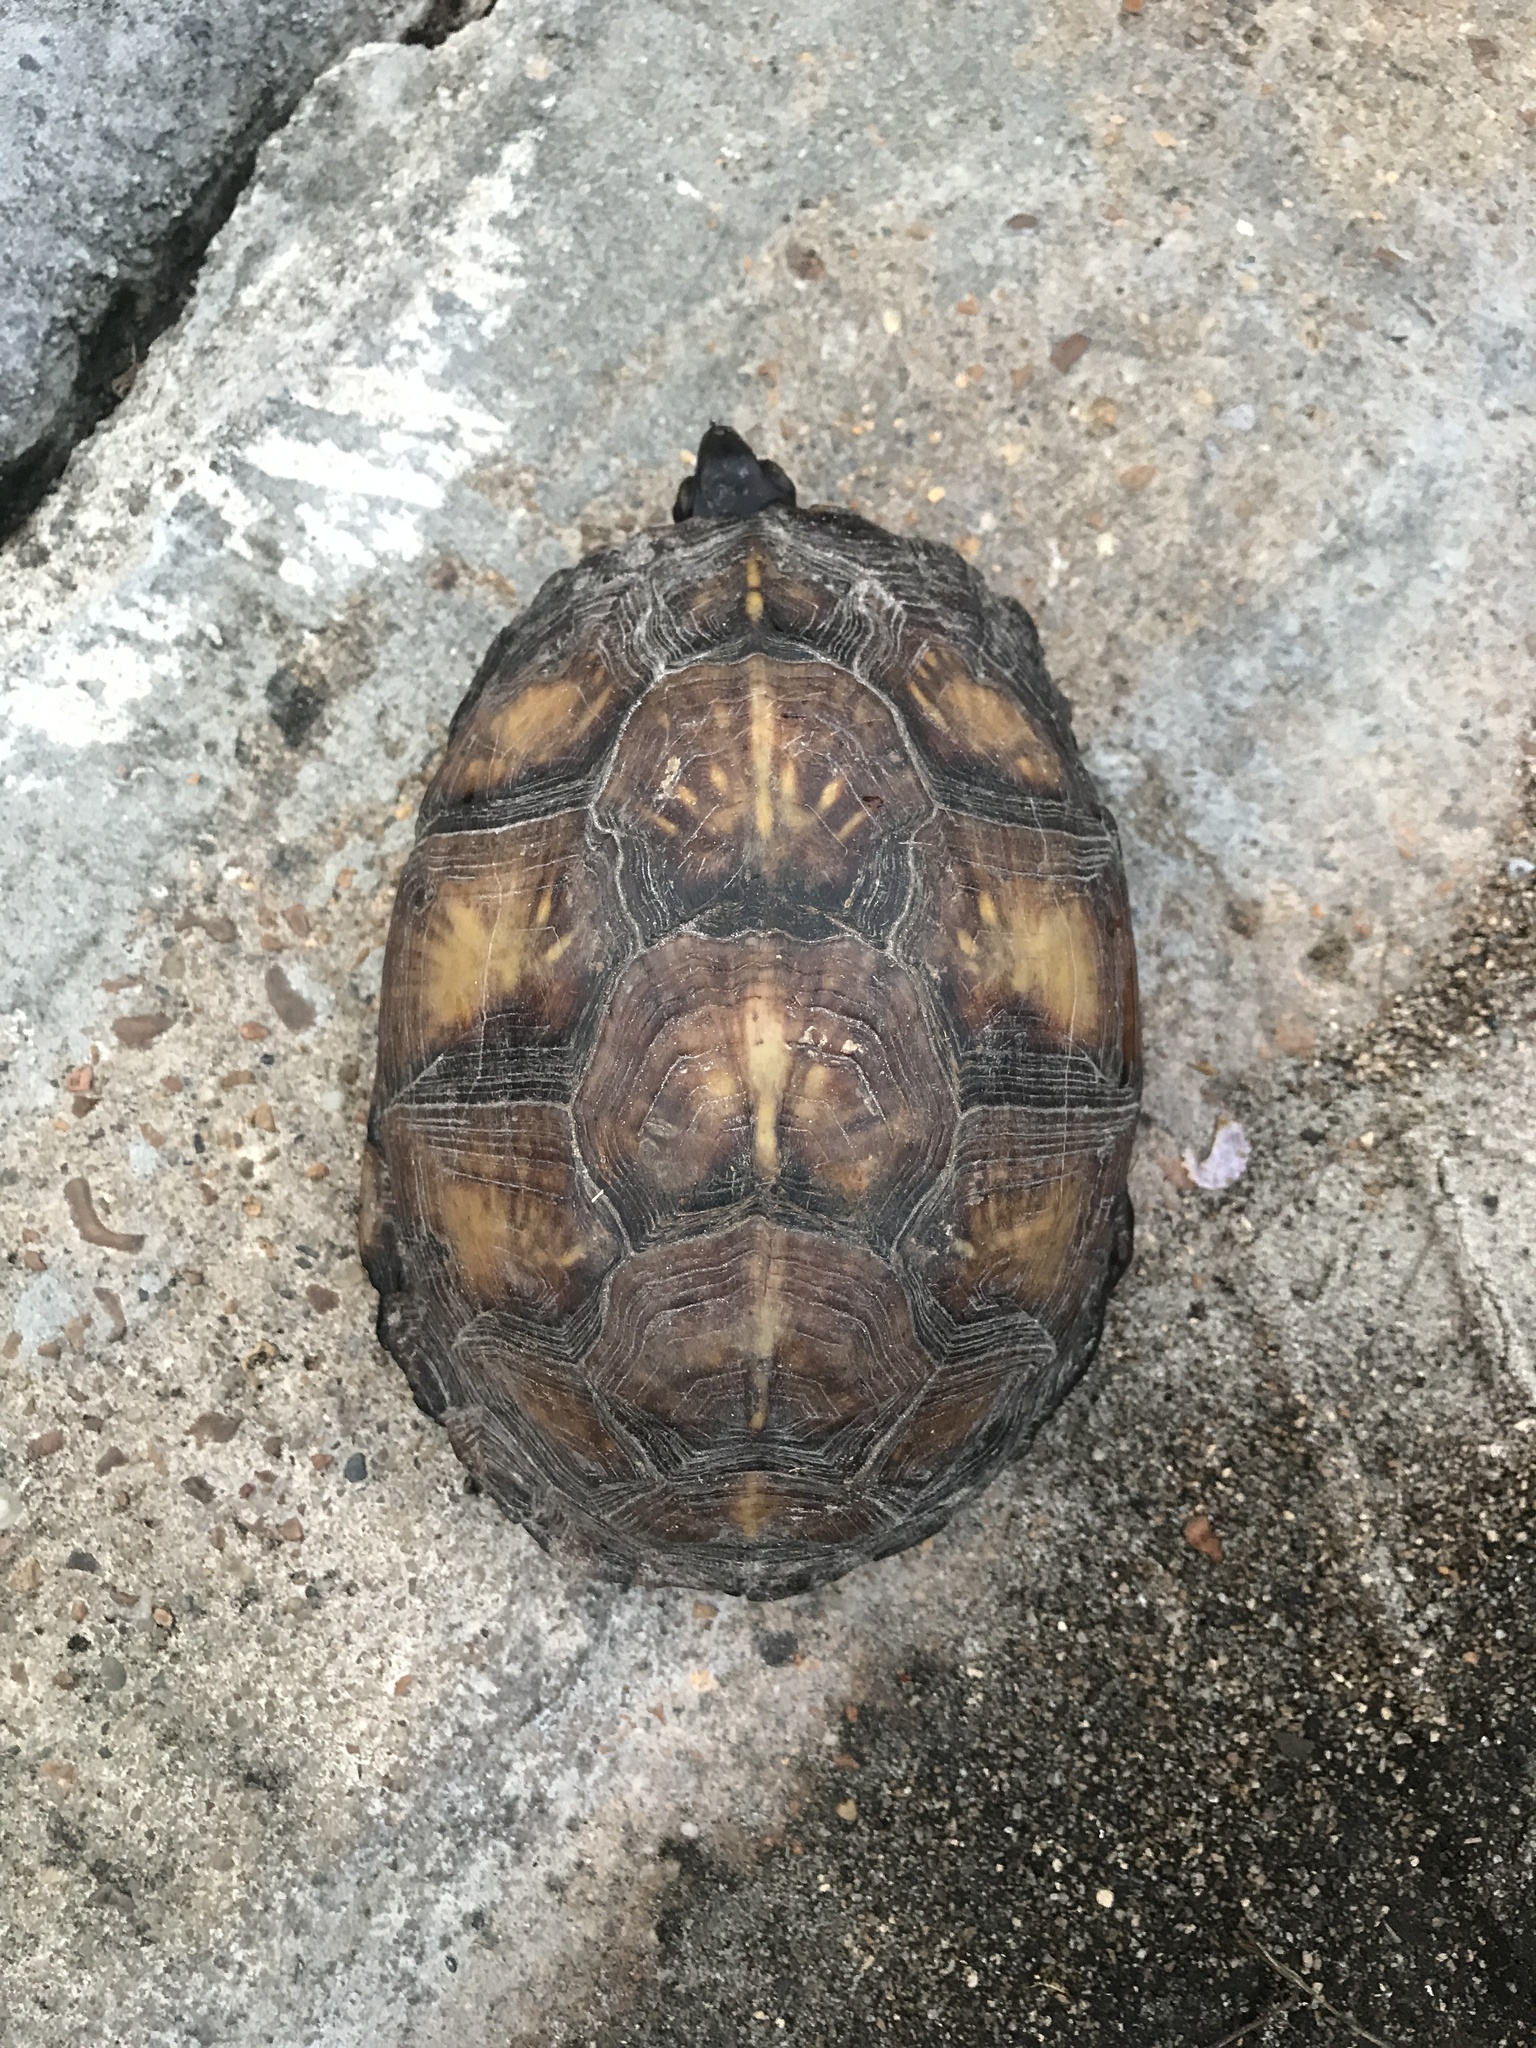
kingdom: Animalia
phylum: Chordata
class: Testudines
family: Emydidae
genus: Terrapene
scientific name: Terrapene carolina
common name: Common box turtle
